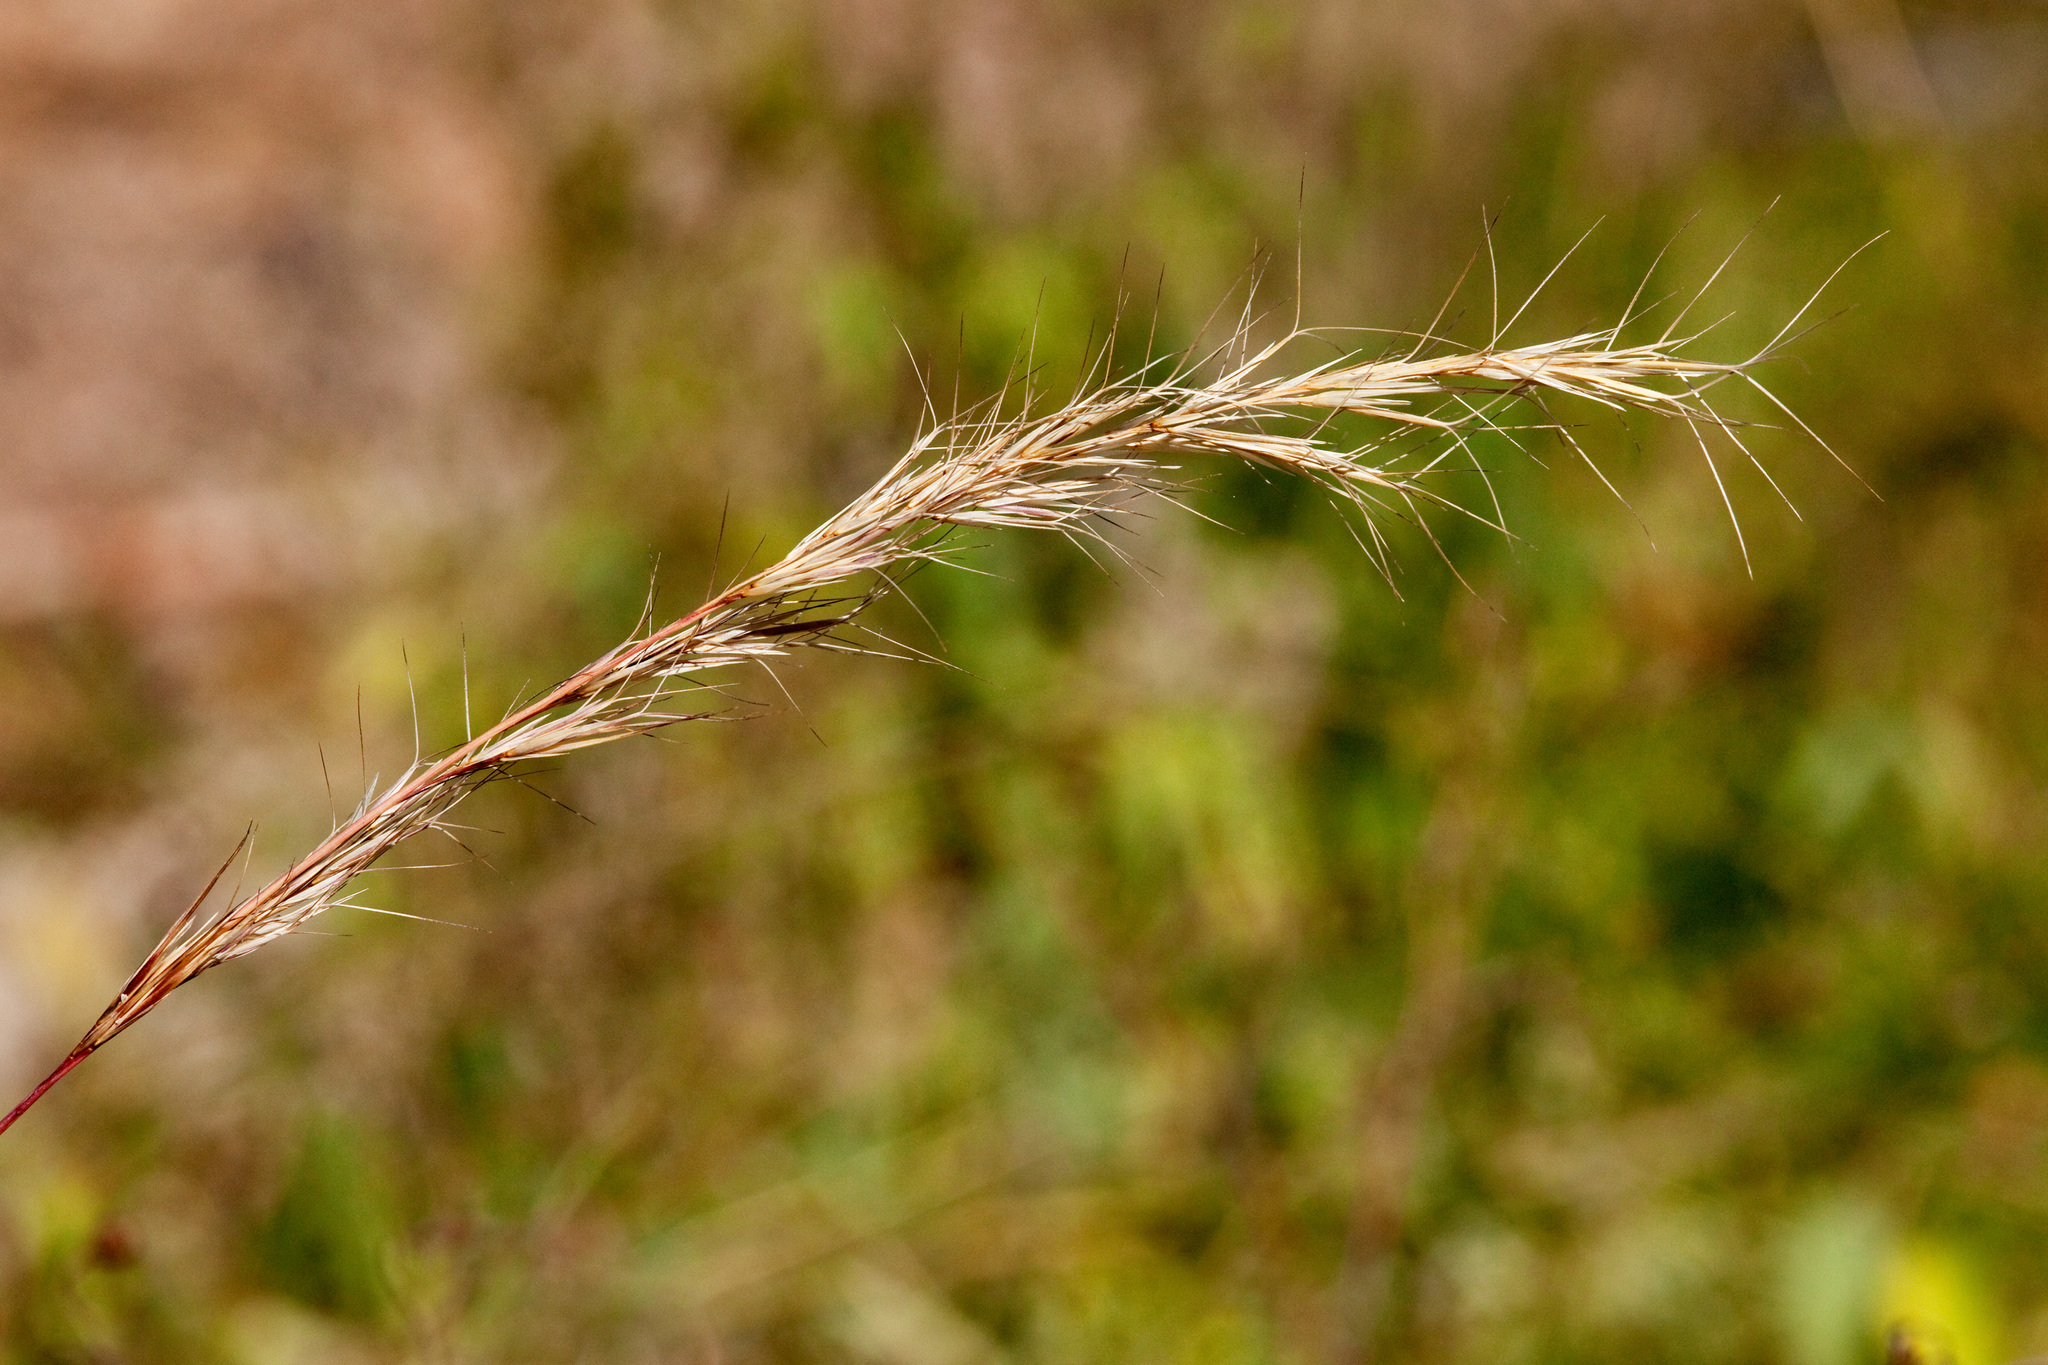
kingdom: Plantae
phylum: Tracheophyta
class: Liliopsida
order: Poales
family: Poaceae
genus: Aristida
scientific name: Aristida adscensionis
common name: Sixweeks threeawn
